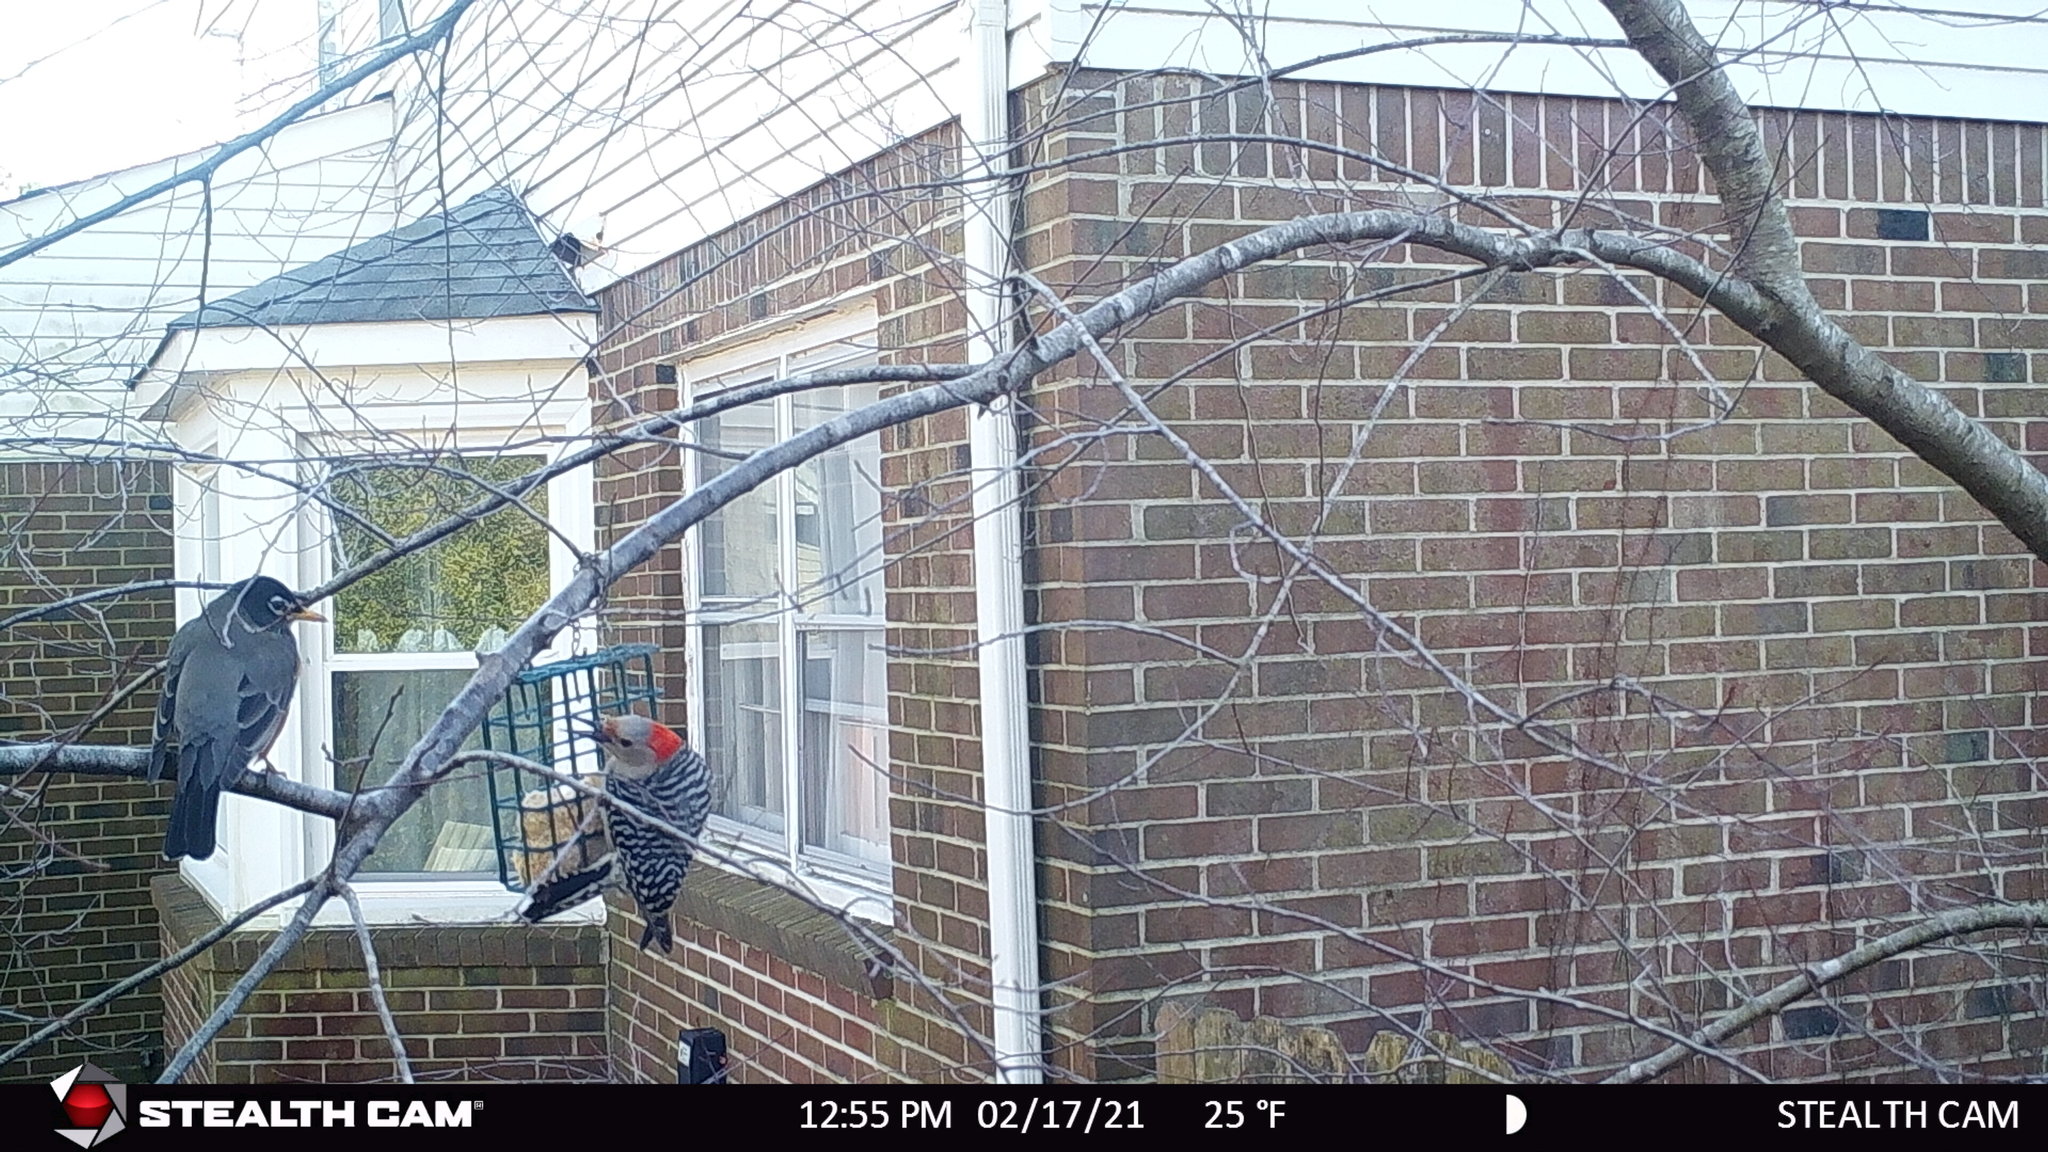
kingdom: Animalia
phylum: Chordata
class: Aves
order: Passeriformes
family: Turdidae
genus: Turdus
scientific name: Turdus migratorius
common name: American robin
